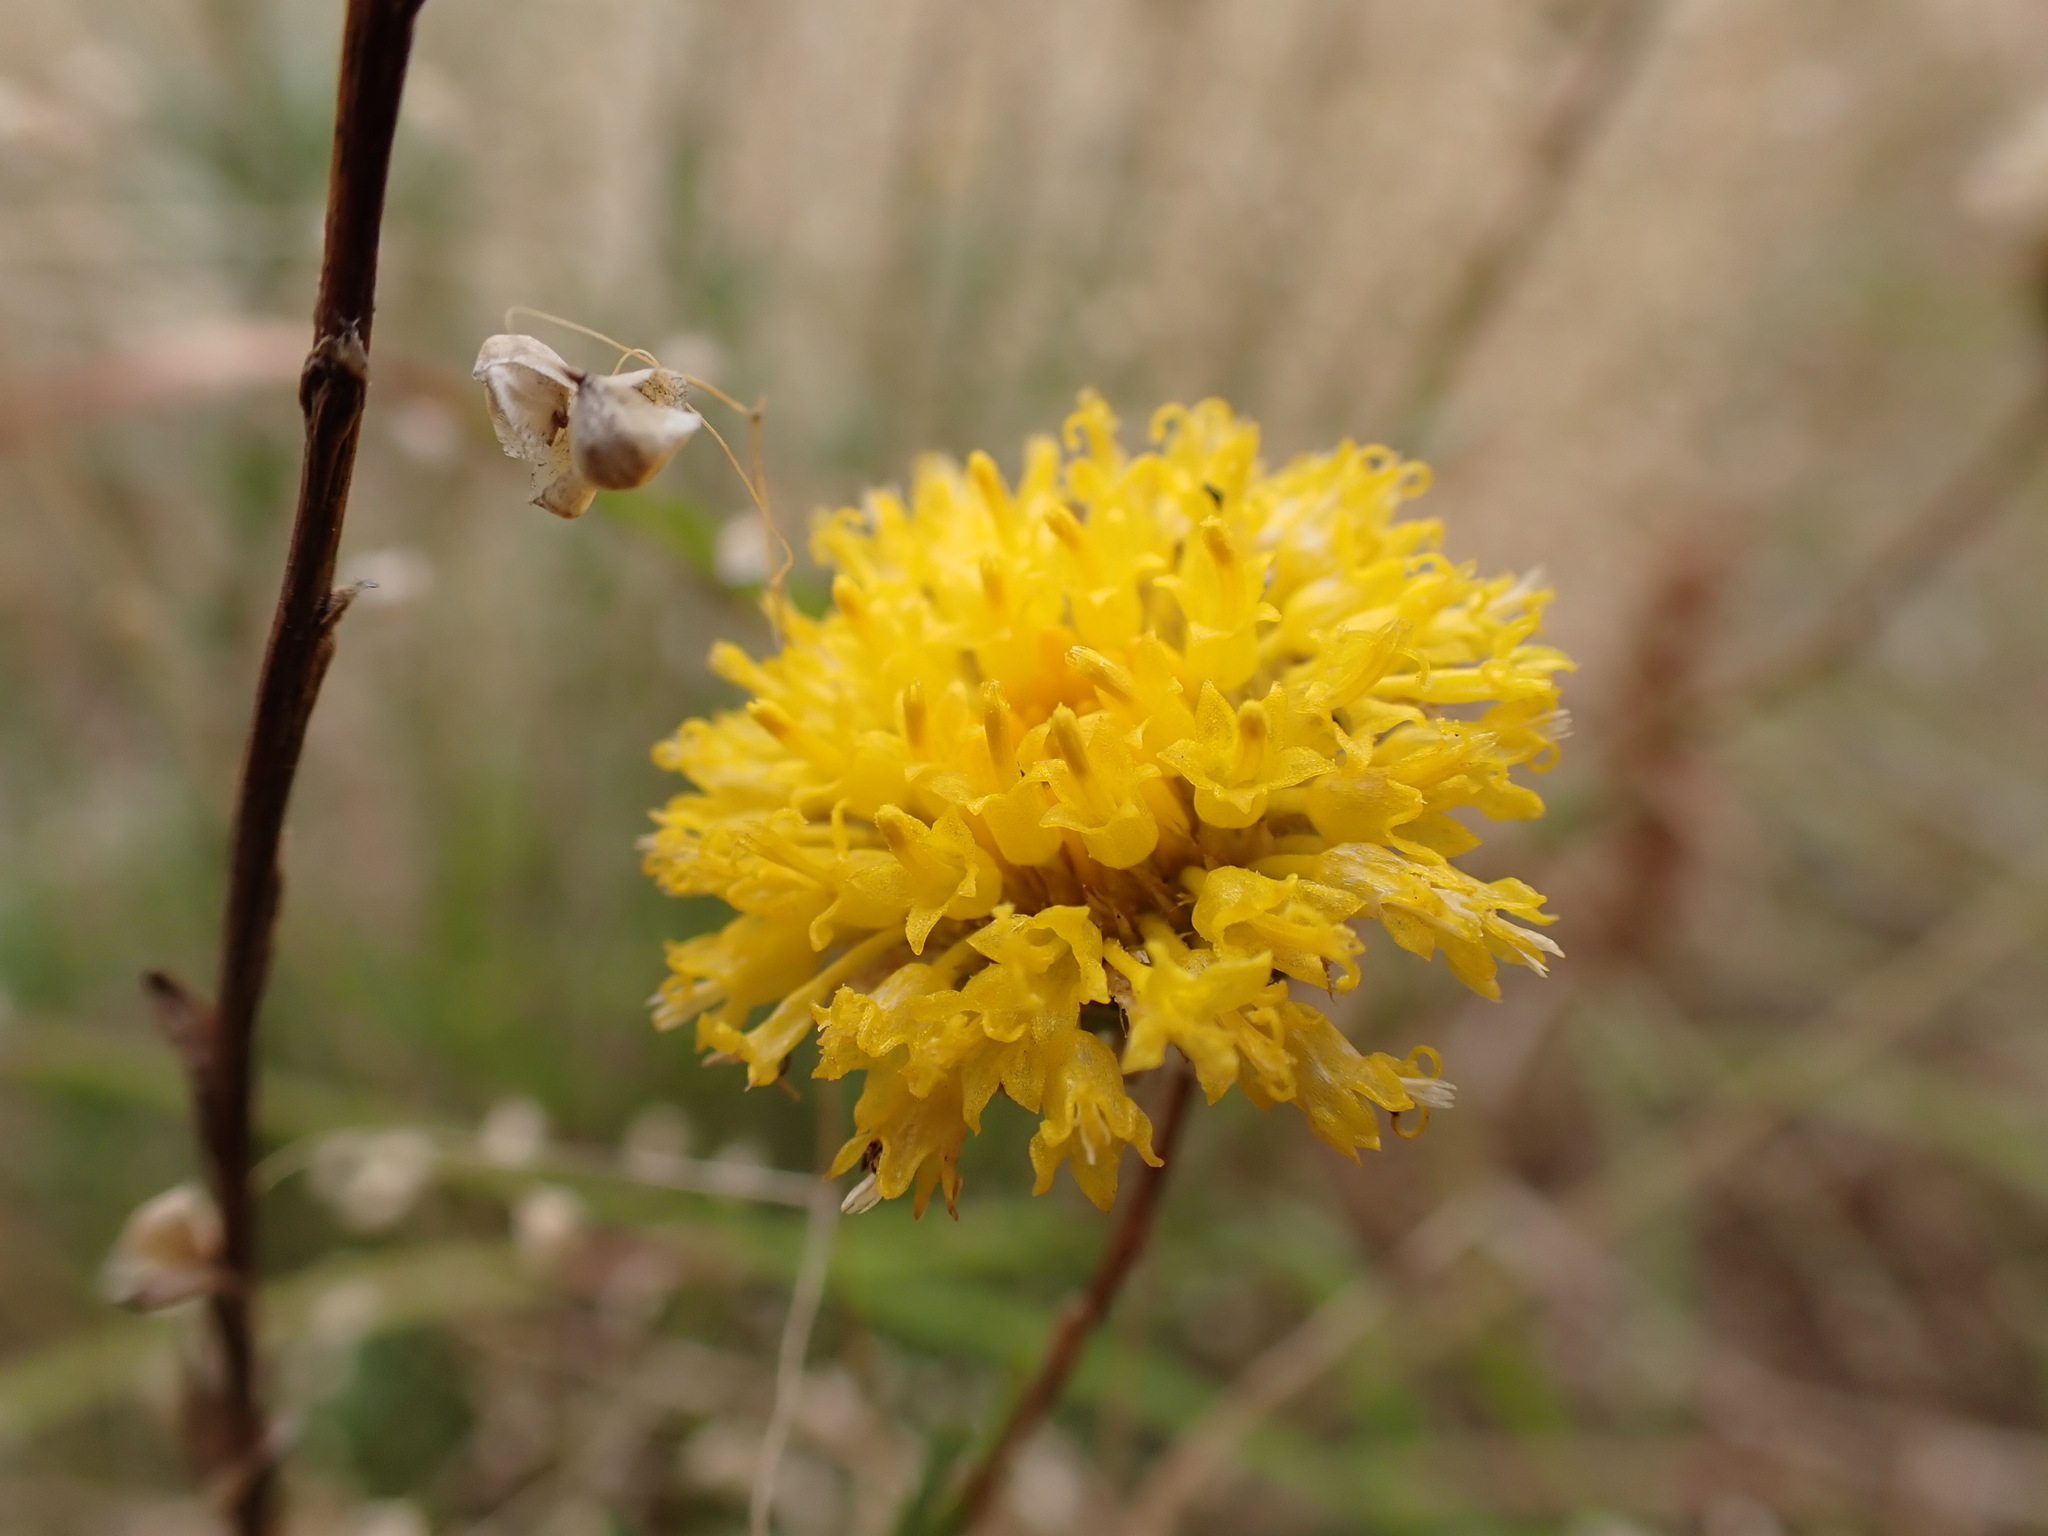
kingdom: Plantae
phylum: Tracheophyta
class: Magnoliopsida
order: Asterales
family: Asteraceae
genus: Rutidosis
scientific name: Rutidosis leptorrhynchoides
